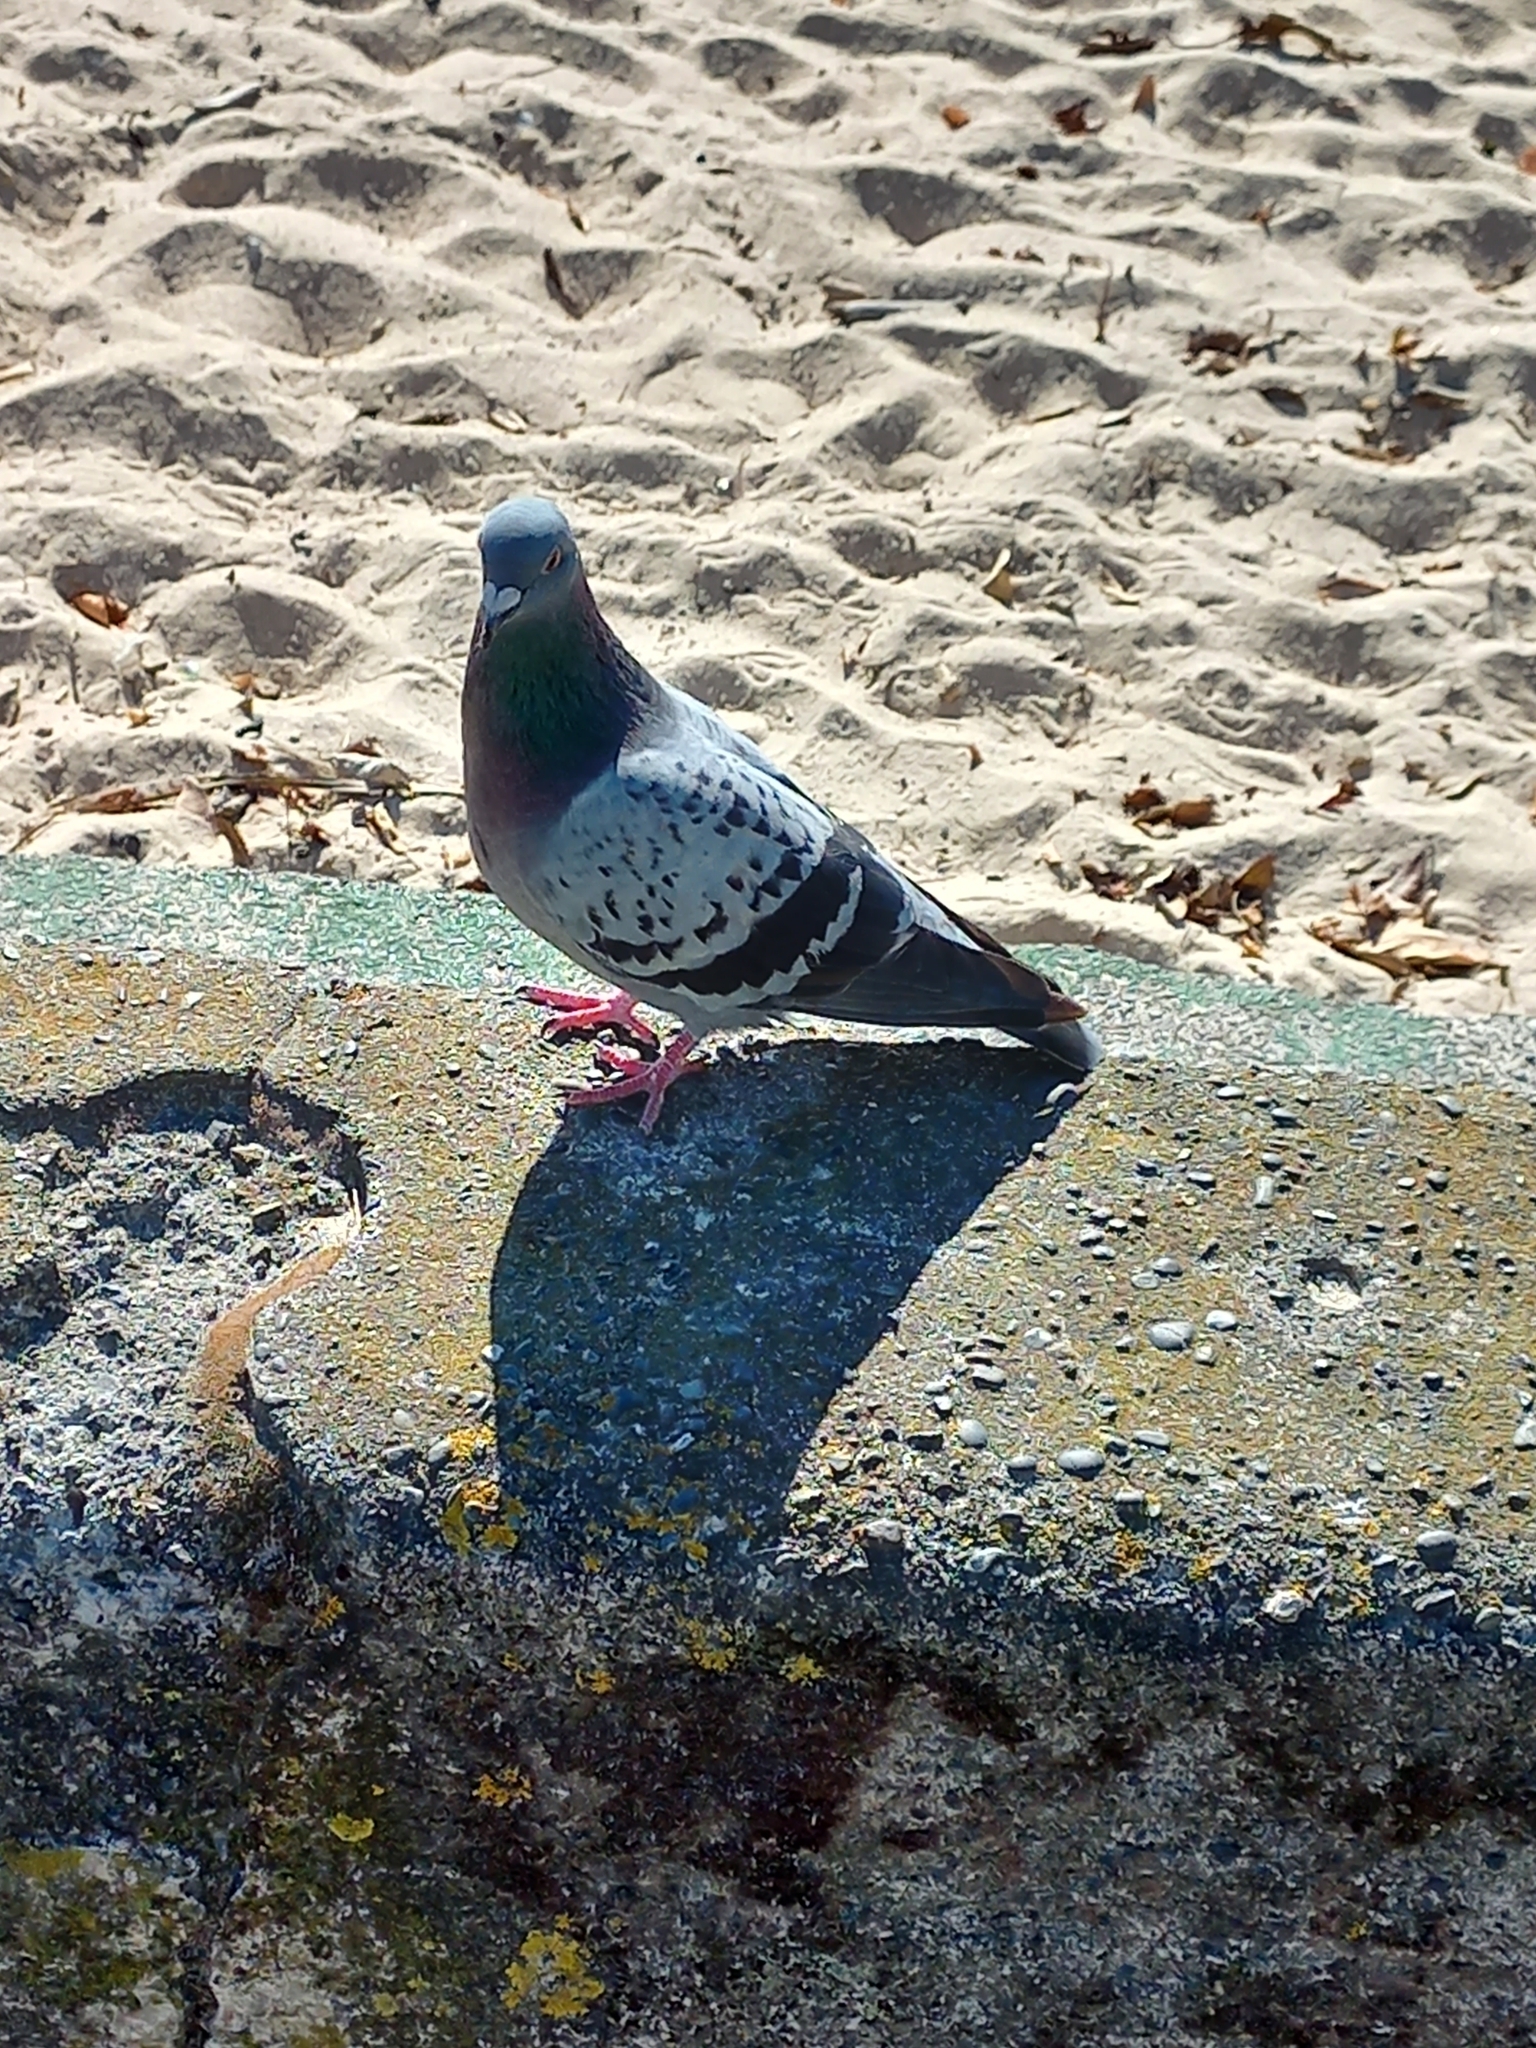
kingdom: Animalia
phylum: Chordata
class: Aves
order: Columbiformes
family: Columbidae
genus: Columba
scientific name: Columba livia
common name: Rock pigeon
